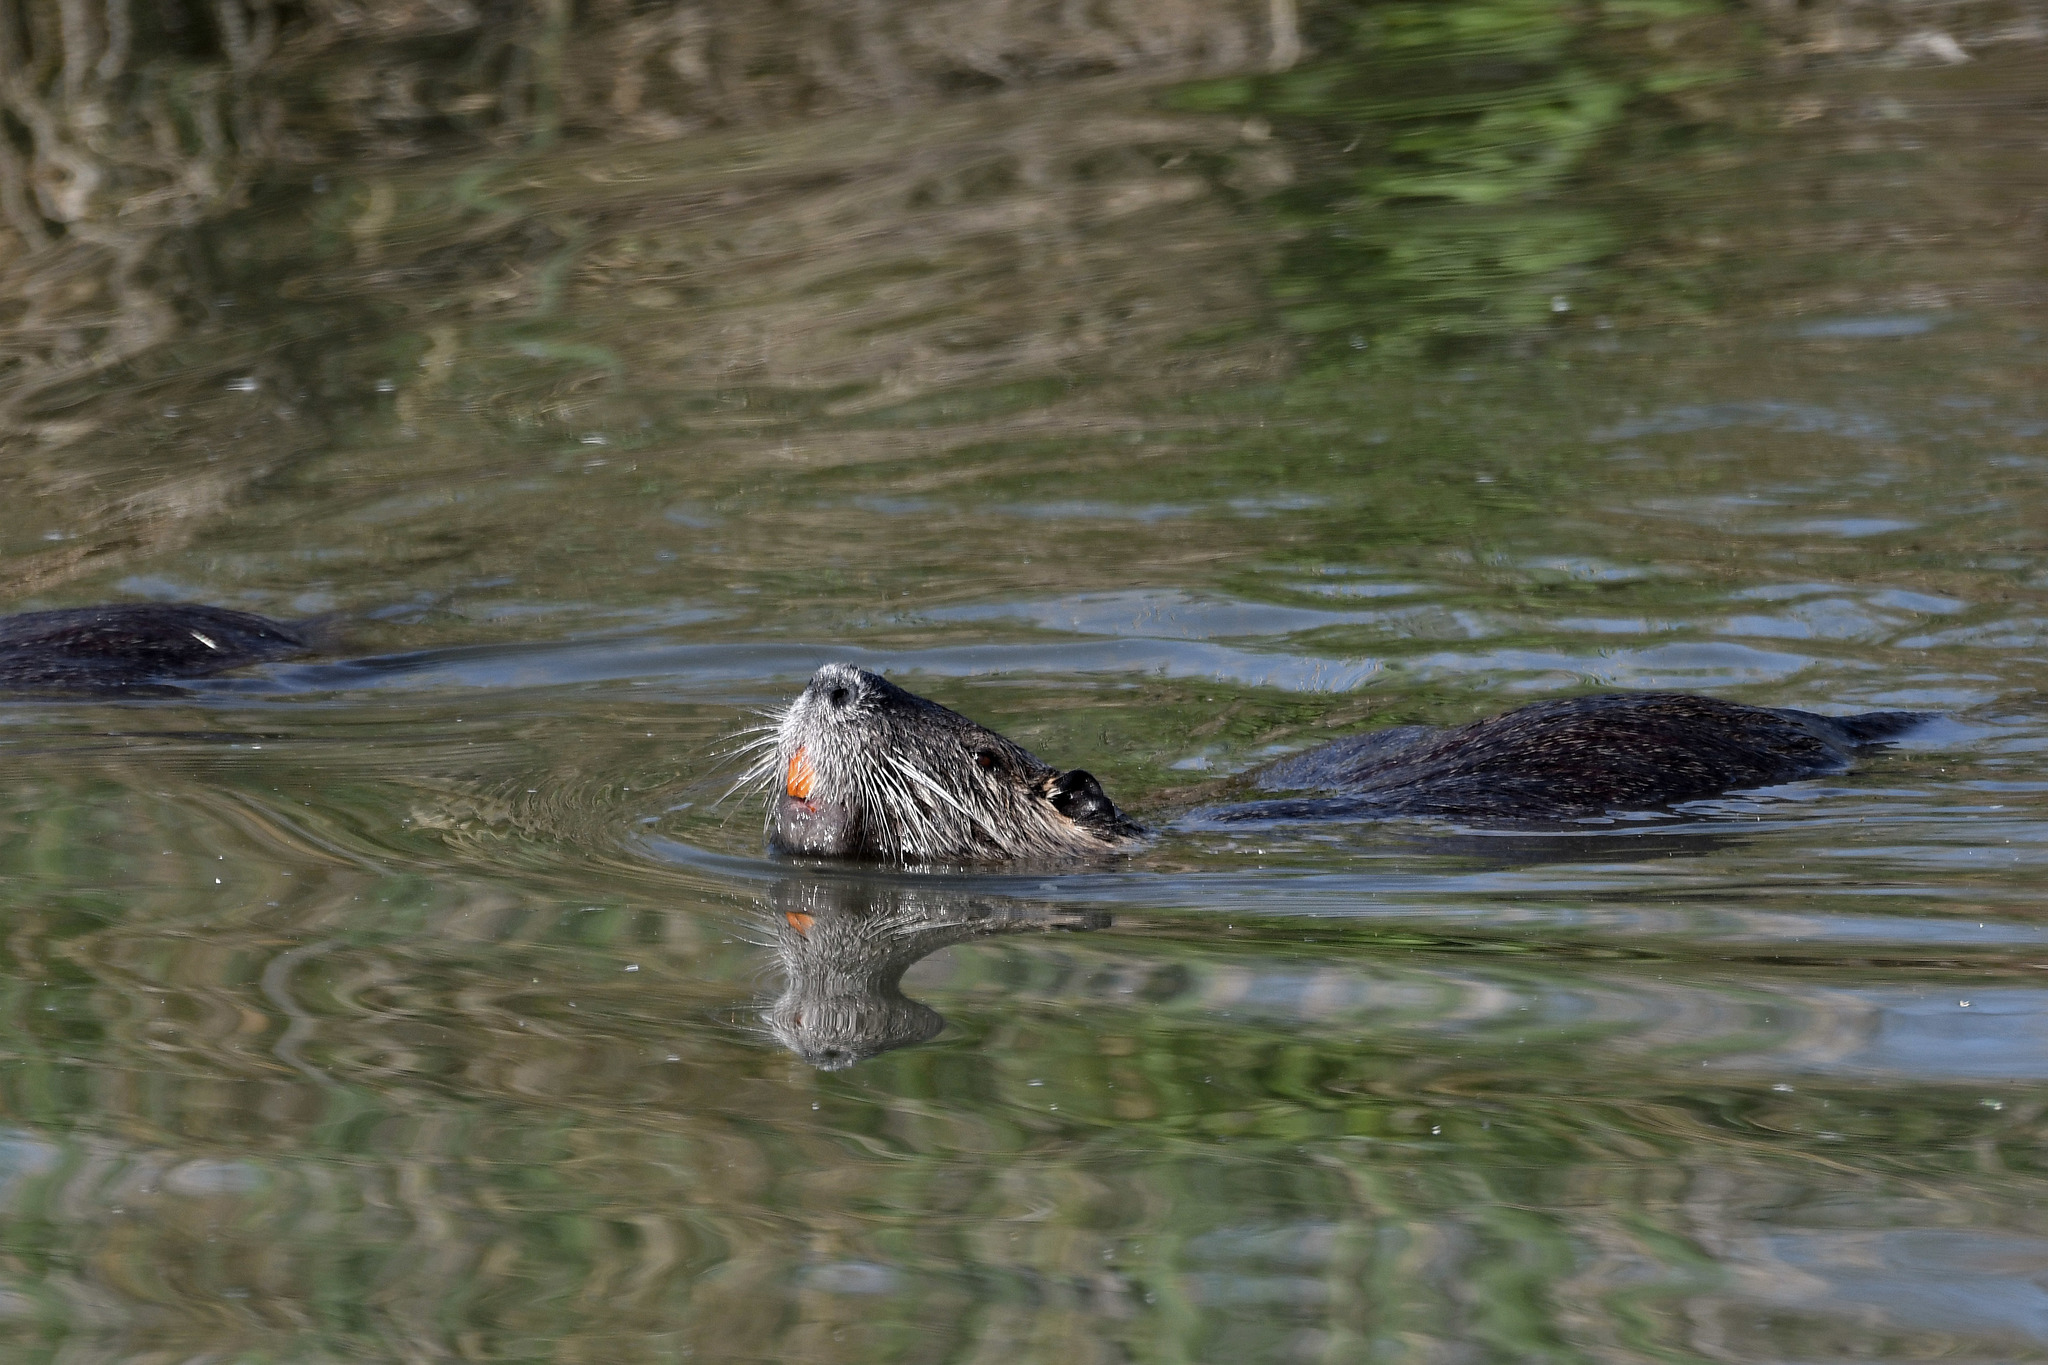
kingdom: Animalia
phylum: Chordata
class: Mammalia
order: Rodentia
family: Myocastoridae
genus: Myocastor
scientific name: Myocastor coypus
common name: Coypu
